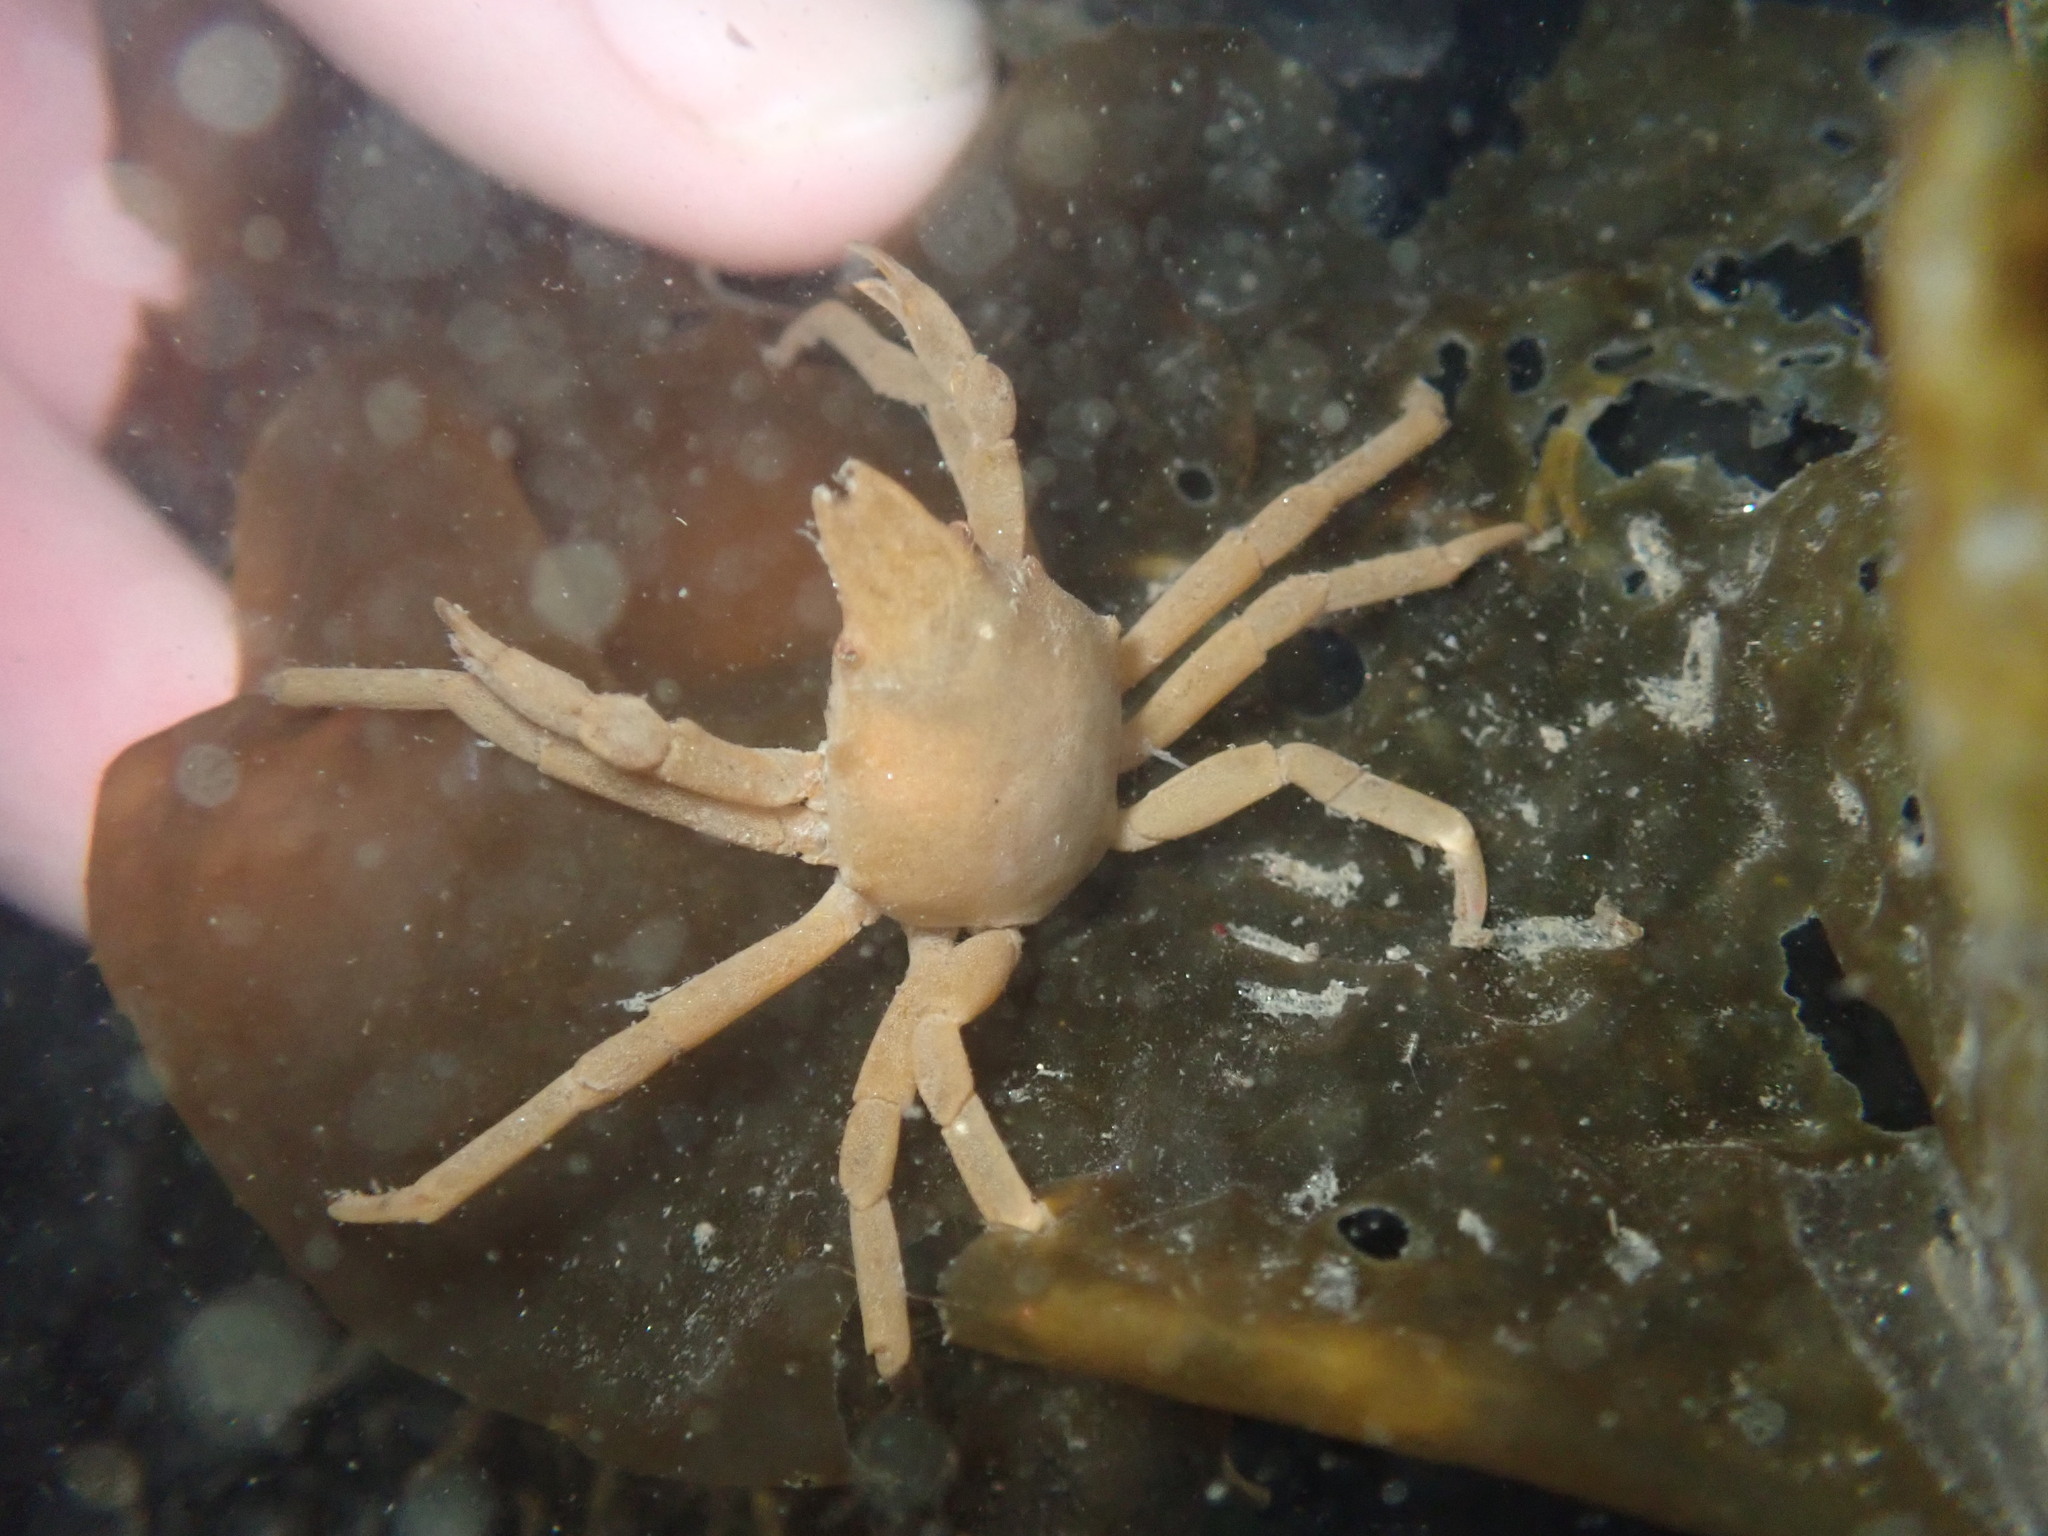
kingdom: Animalia
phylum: Arthropoda
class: Malacostraca
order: Decapoda
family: Epialtidae
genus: Taliepus
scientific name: Taliepus nuttallii
